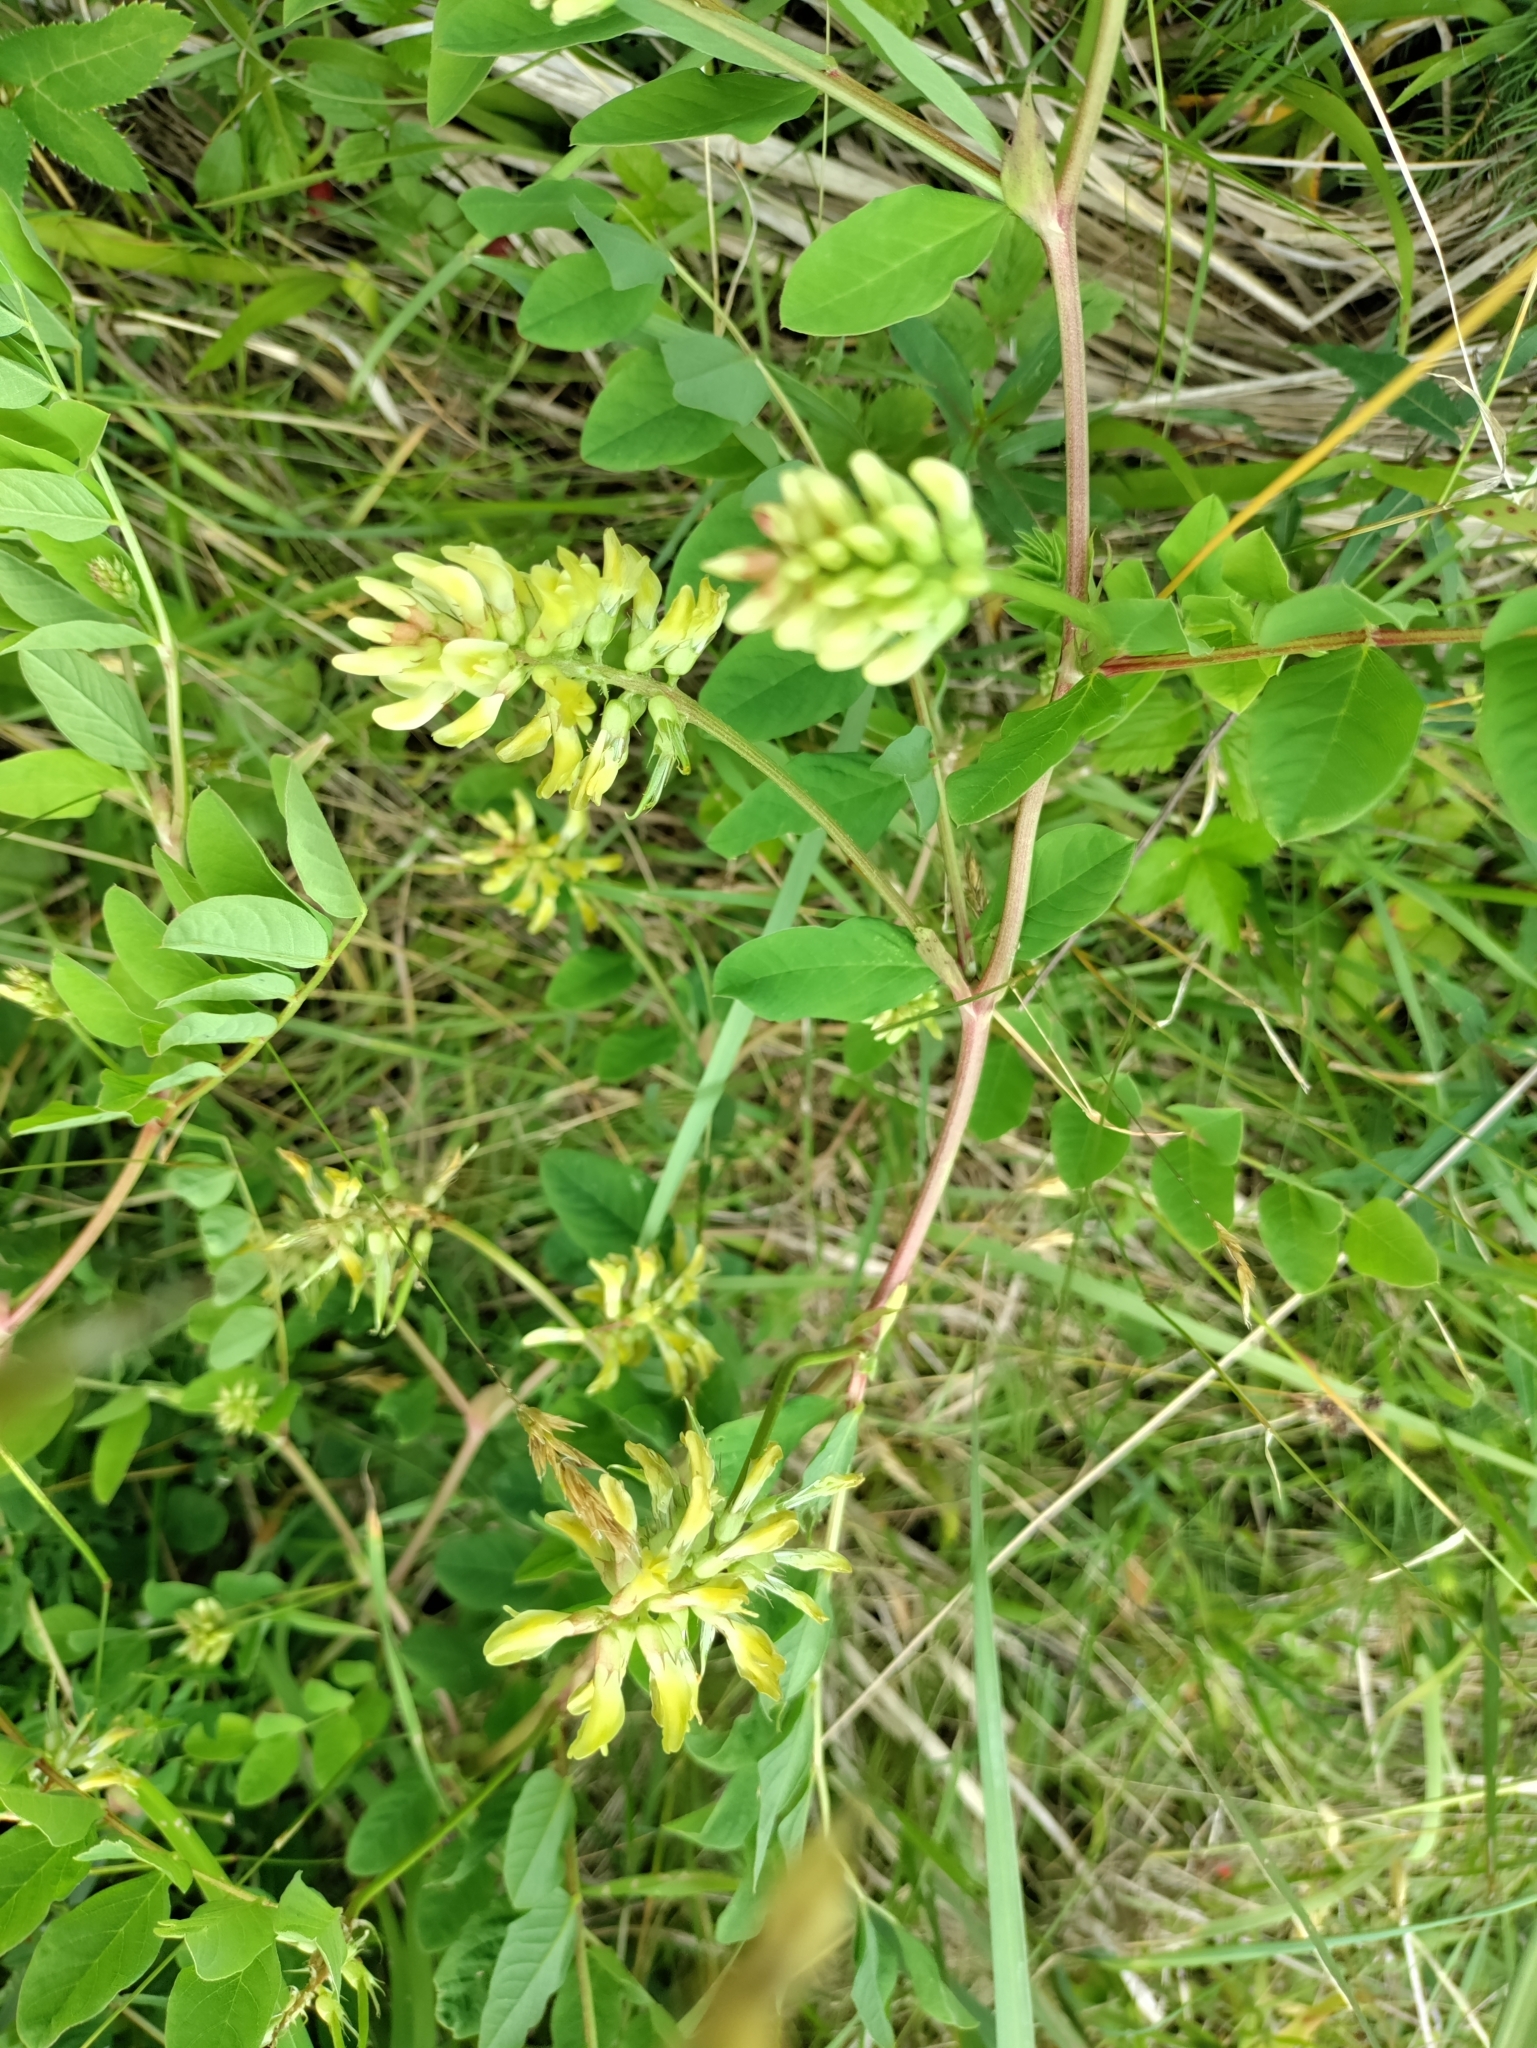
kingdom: Plantae
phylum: Tracheophyta
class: Magnoliopsida
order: Fabales
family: Fabaceae
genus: Astragalus
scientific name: Astragalus glycyphyllos
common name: Wild liquorice
